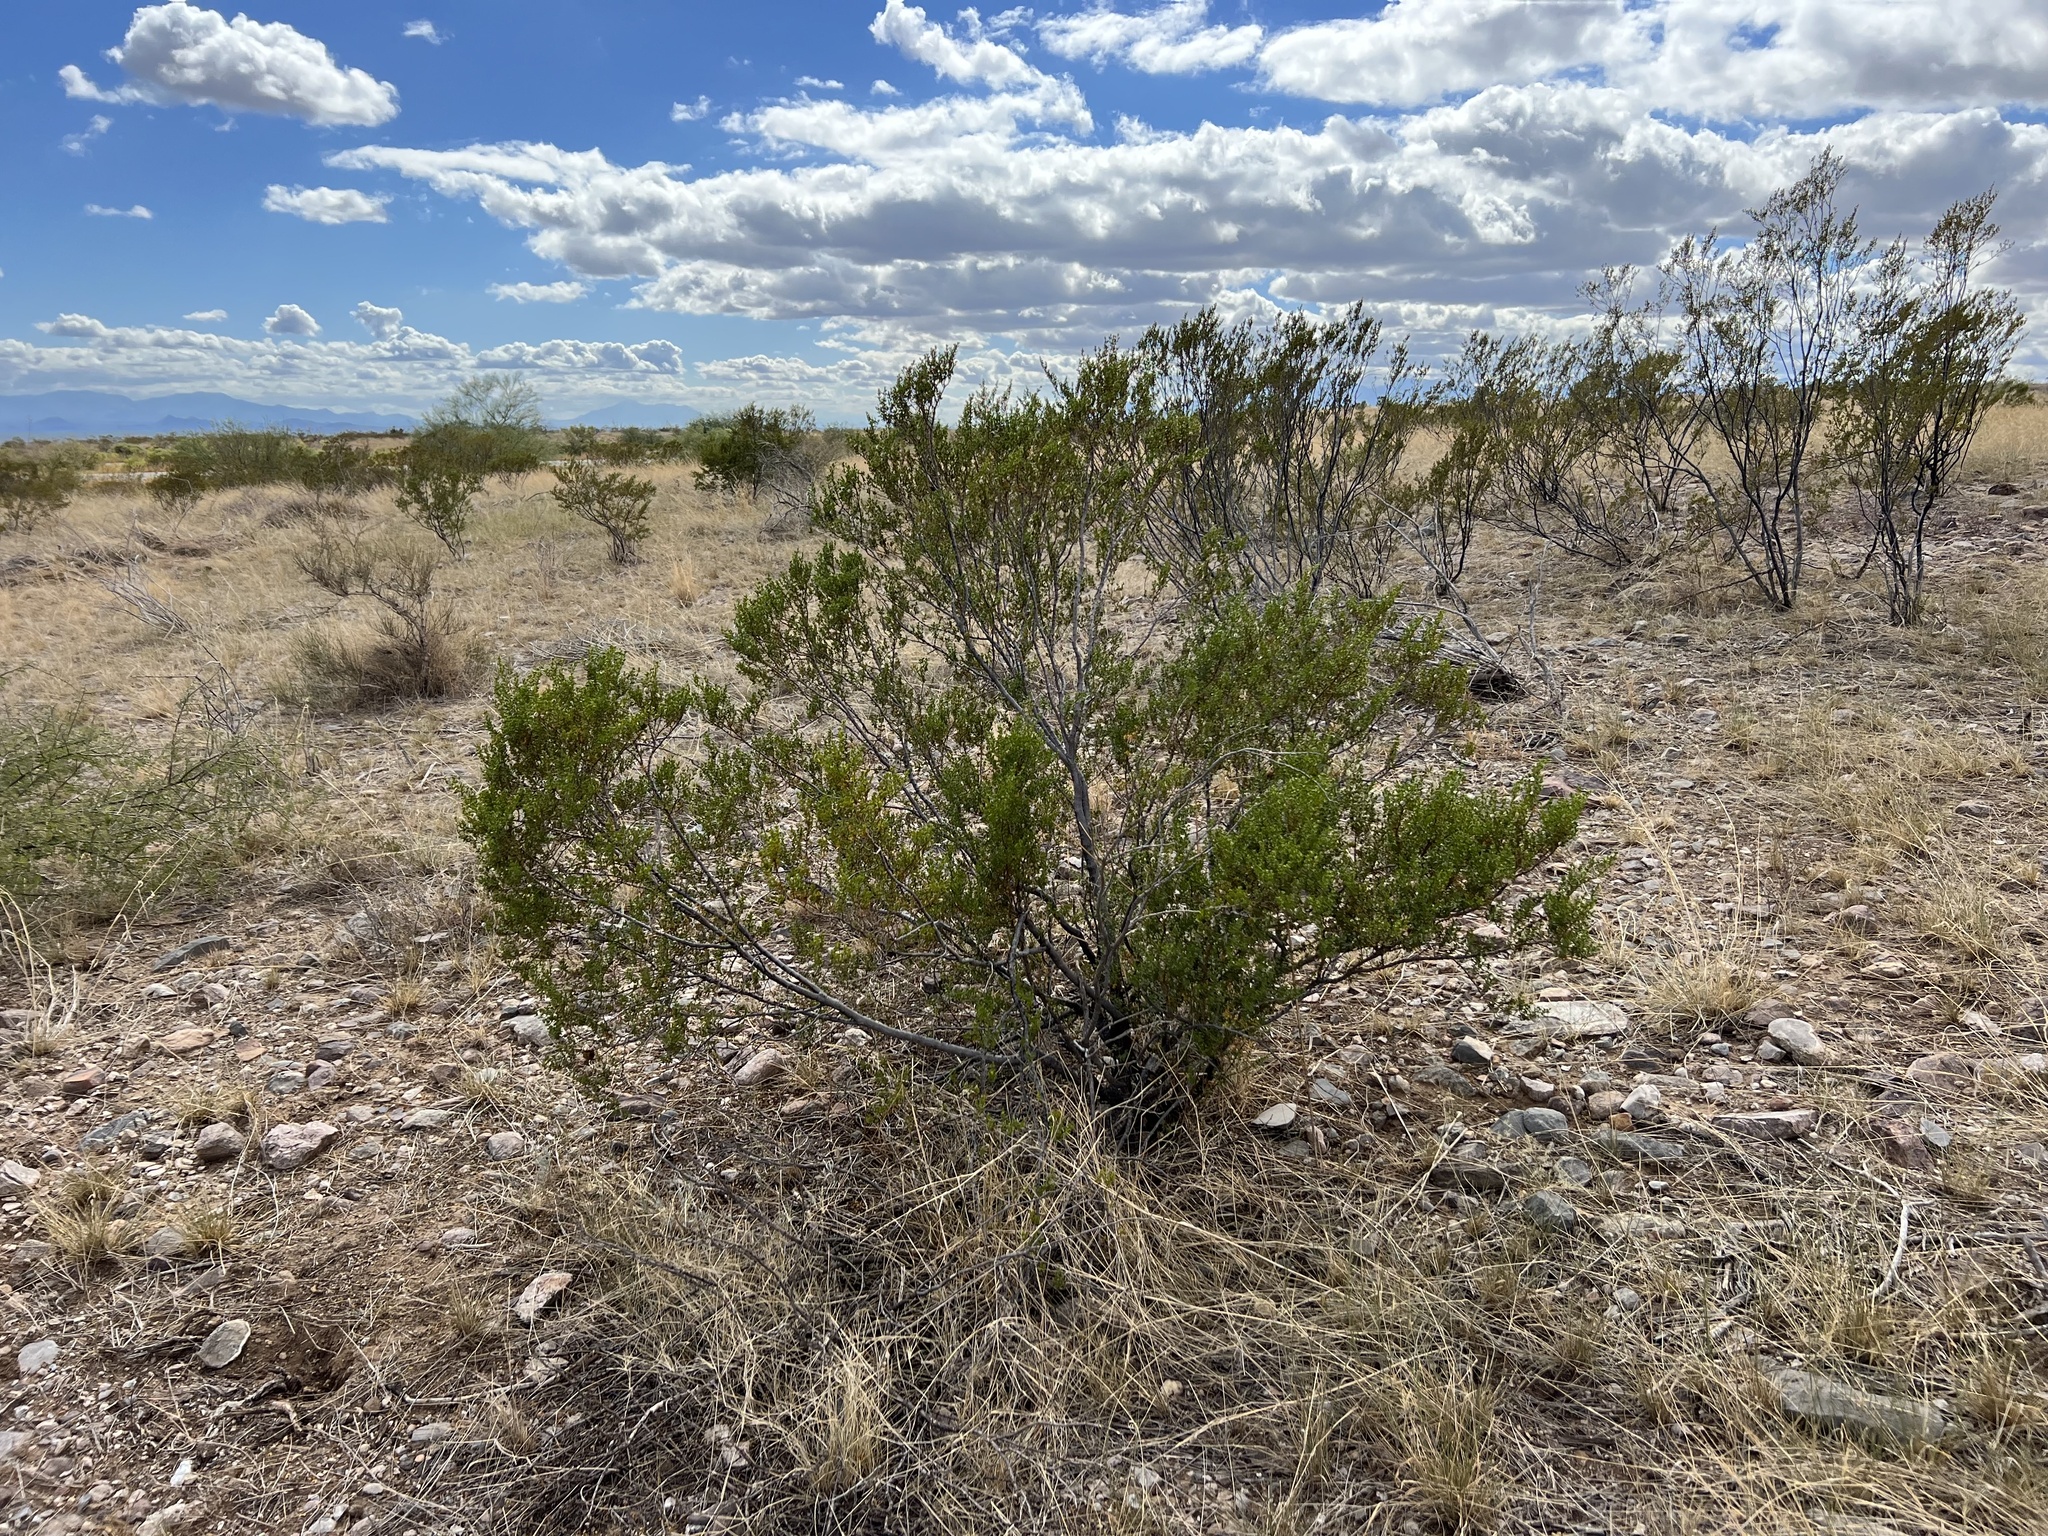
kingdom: Plantae
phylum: Tracheophyta
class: Magnoliopsida
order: Zygophyllales
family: Zygophyllaceae
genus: Larrea
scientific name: Larrea tridentata
